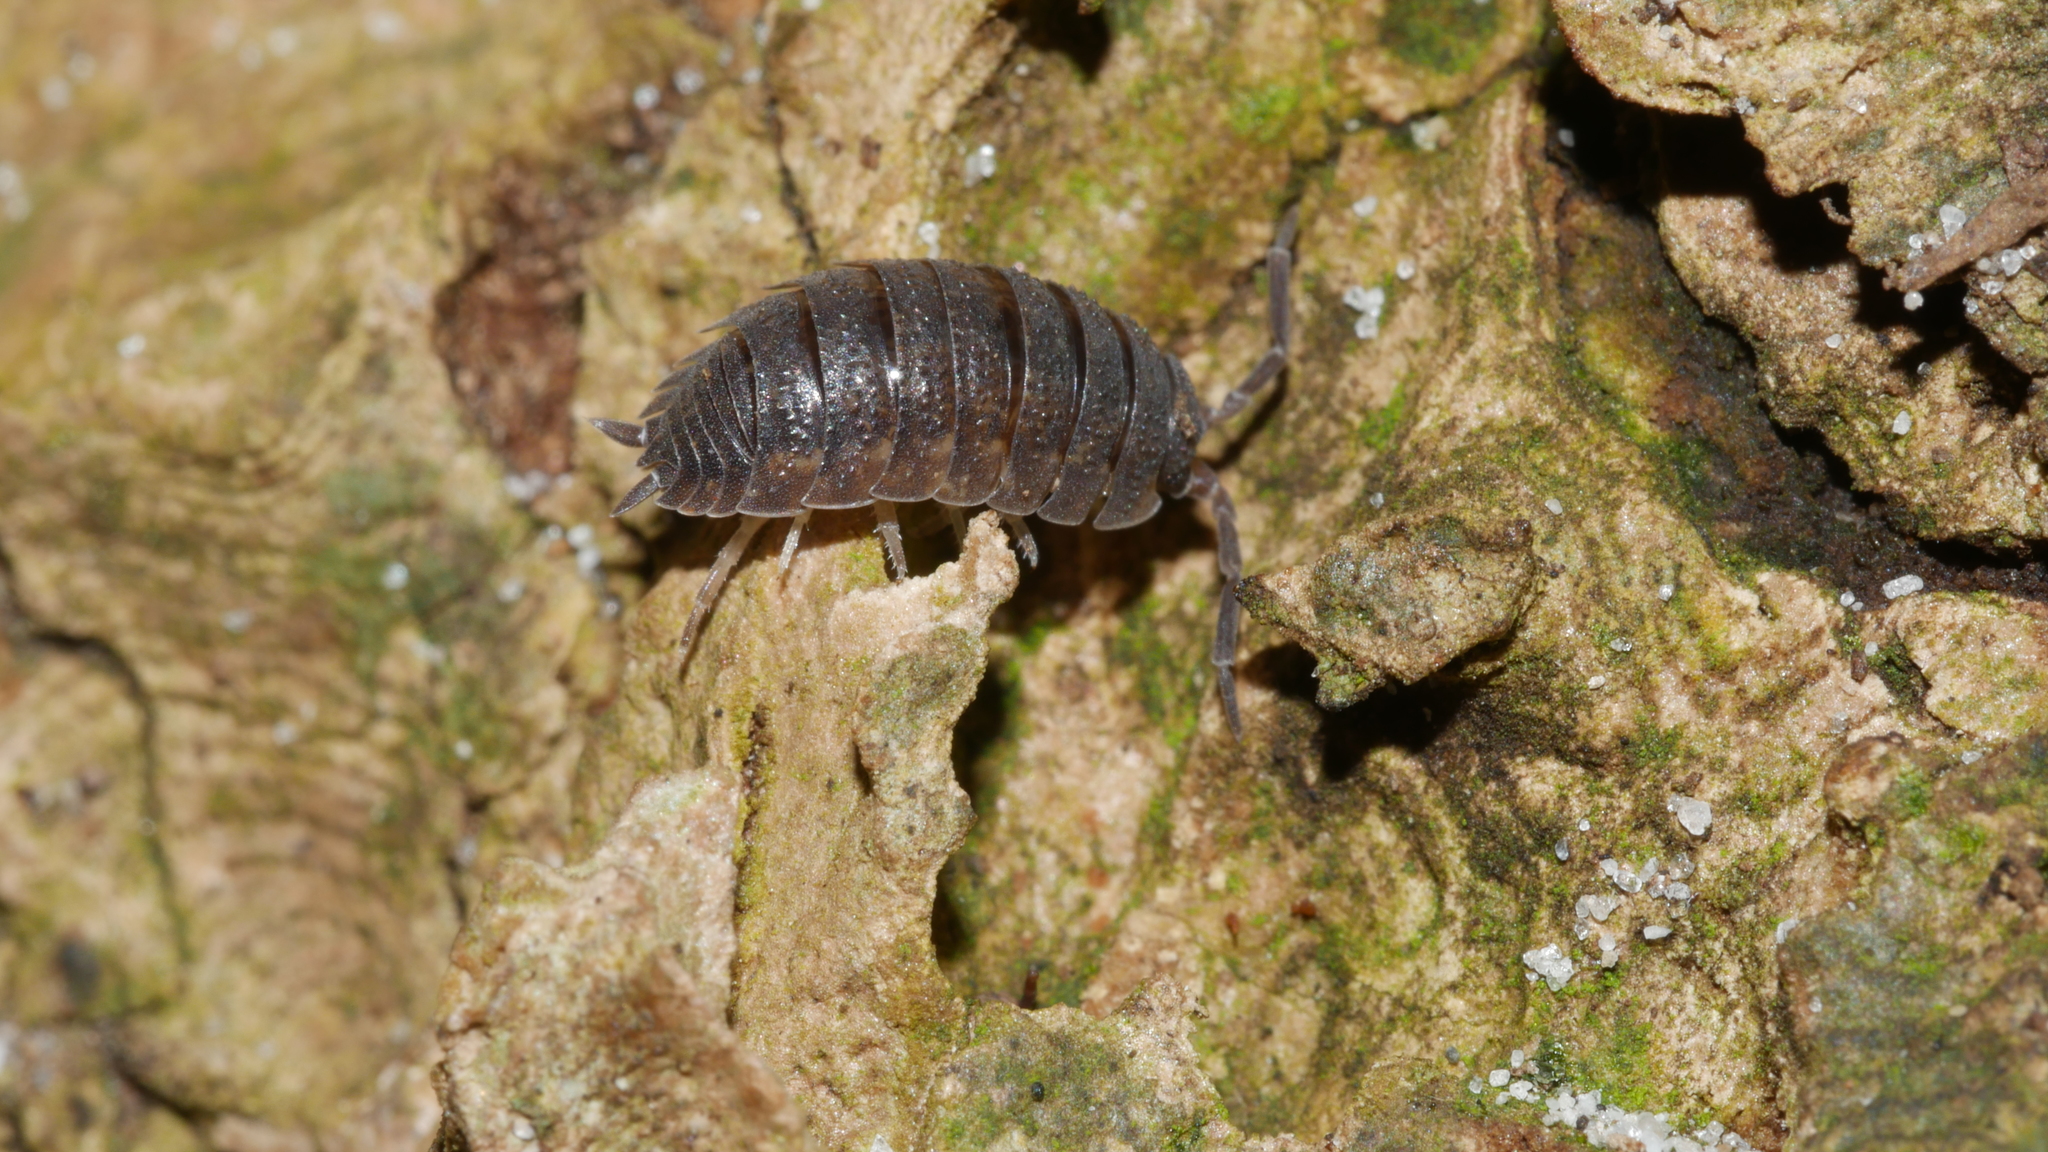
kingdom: Animalia
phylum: Arthropoda
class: Malacostraca
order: Isopoda
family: Porcellionidae
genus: Porcellio
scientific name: Porcellio scaber
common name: Common rough woodlouse
